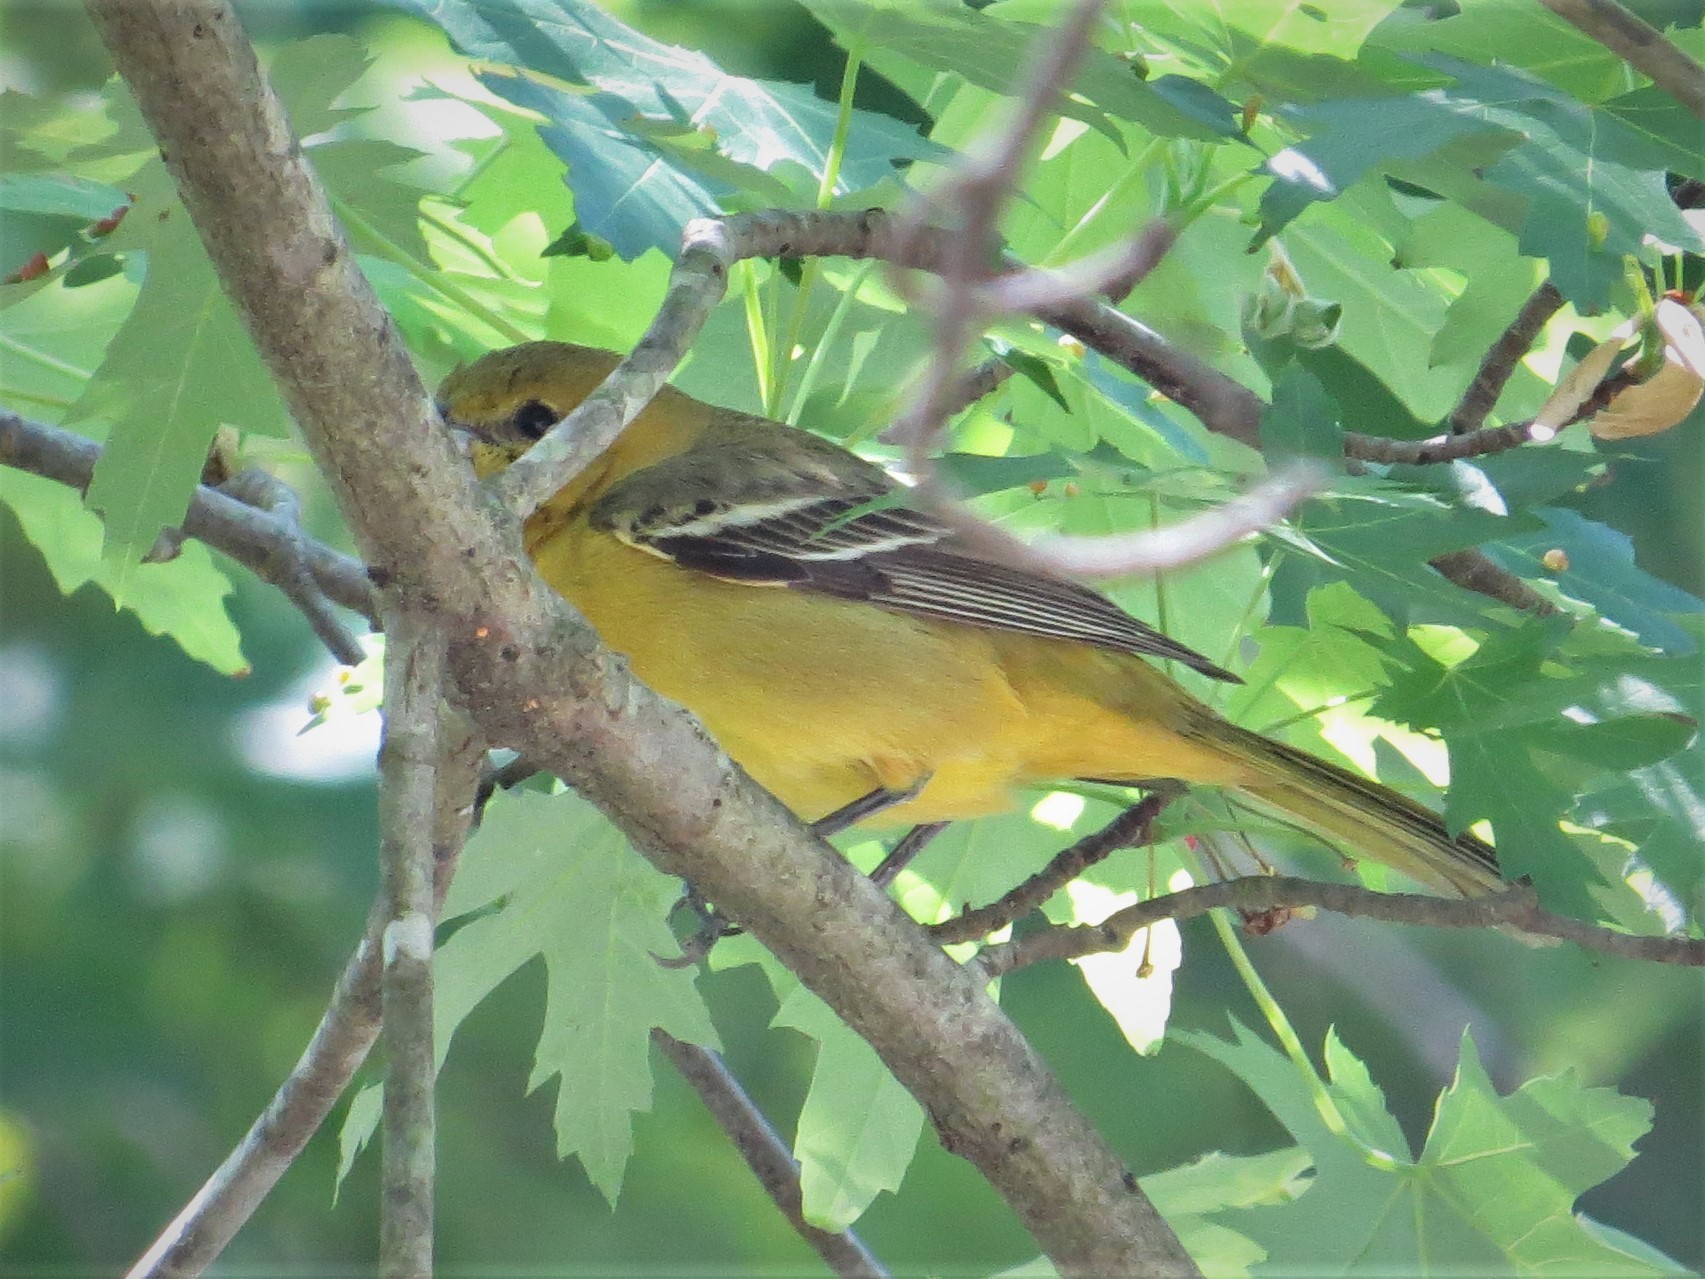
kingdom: Animalia
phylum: Chordata
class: Aves
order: Passeriformes
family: Icteridae
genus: Icterus
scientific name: Icterus spurius
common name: Orchard oriole
